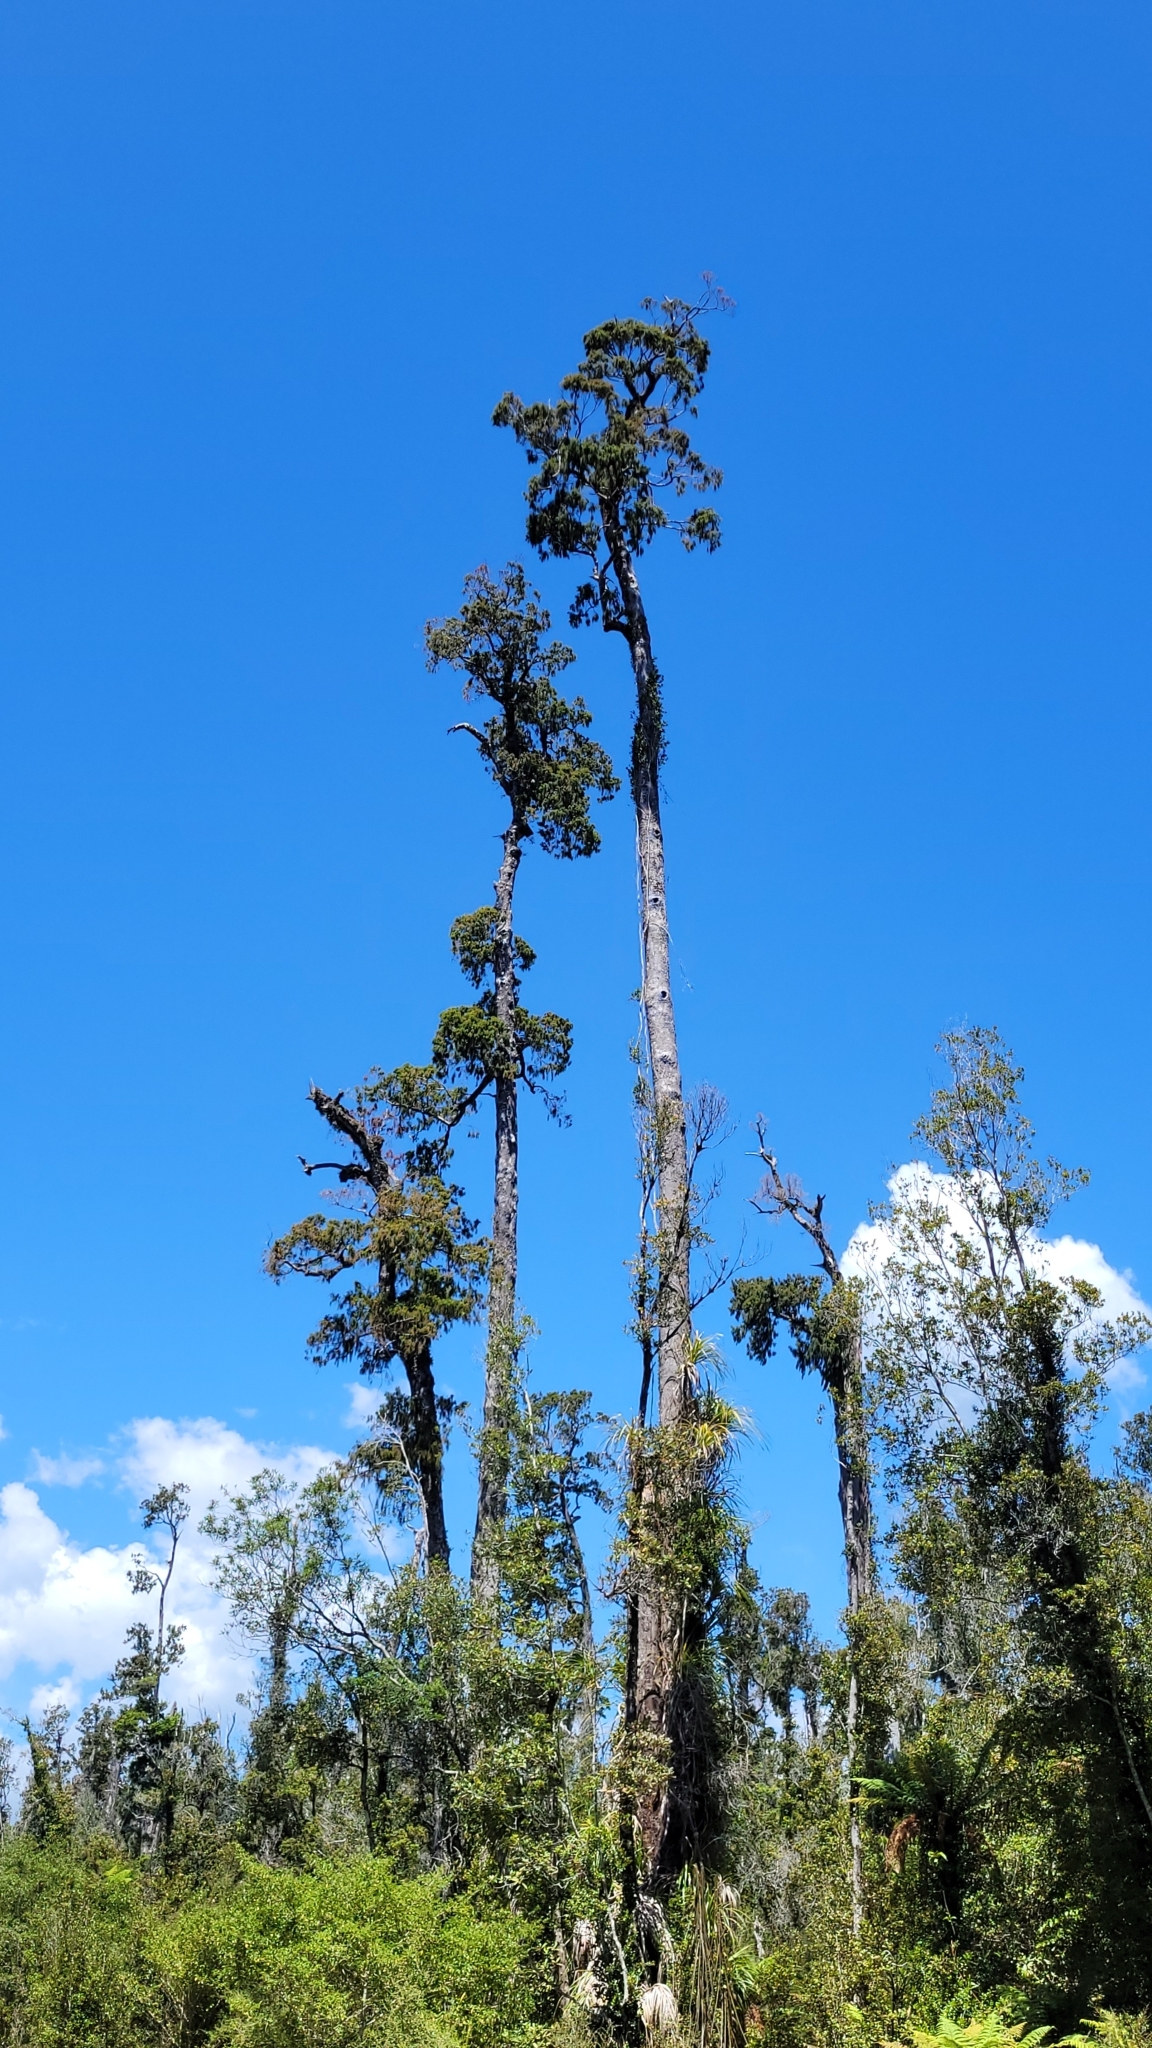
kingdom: Plantae
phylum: Tracheophyta
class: Pinopsida
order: Pinales
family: Podocarpaceae
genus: Dacrydium
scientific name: Dacrydium cupressinum
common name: Red pine
